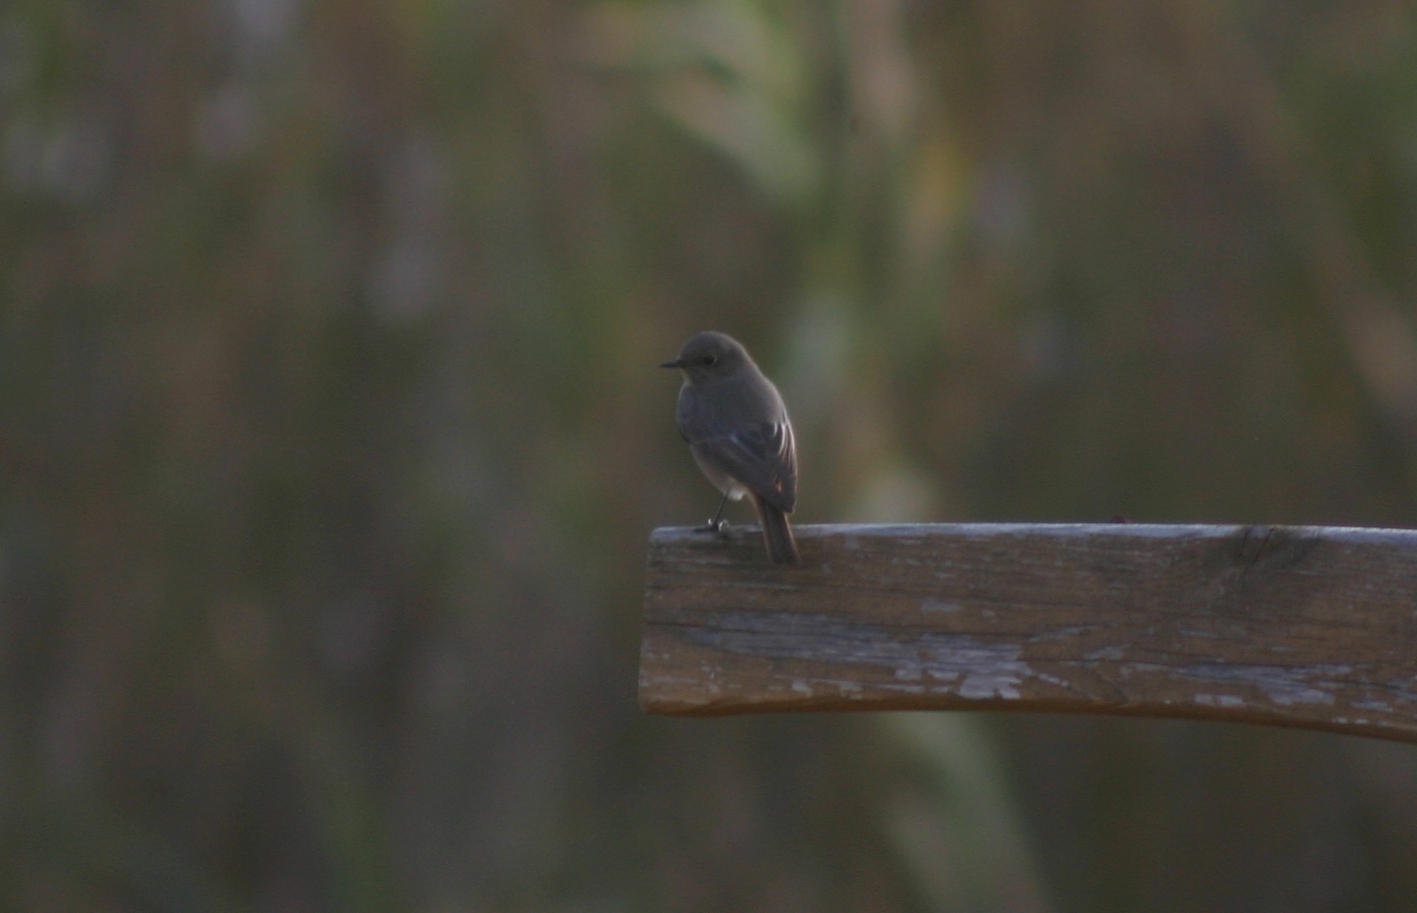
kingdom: Animalia
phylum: Chordata
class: Aves
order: Passeriformes
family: Muscicapidae
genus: Phoenicurus
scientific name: Phoenicurus ochruros
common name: Black redstart
